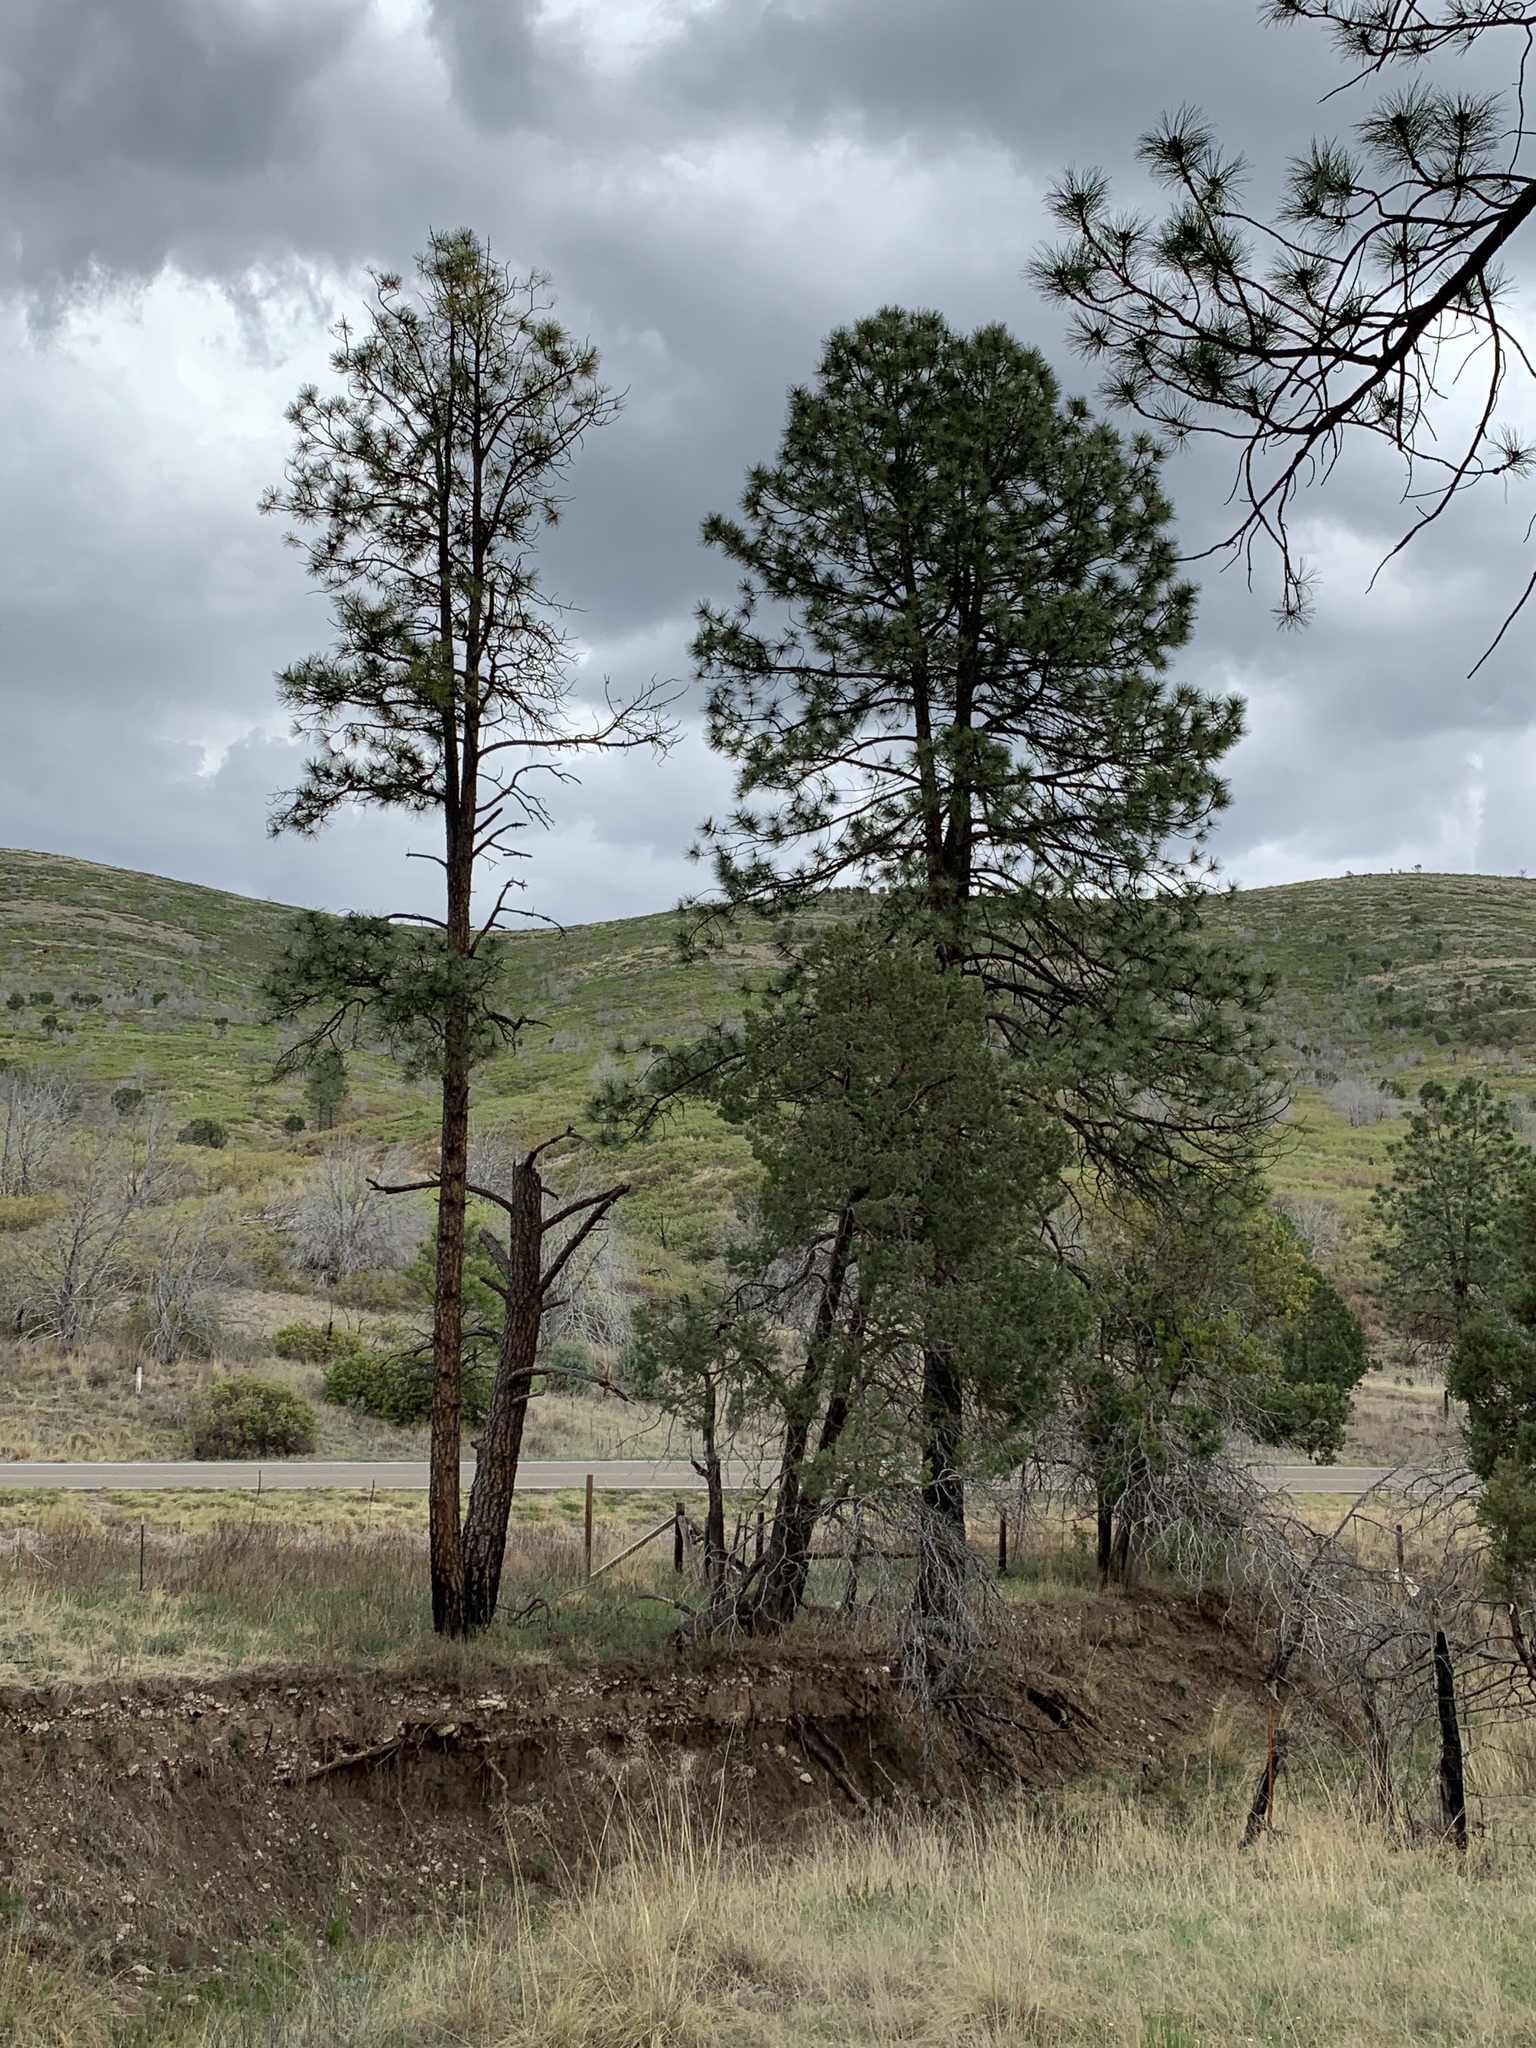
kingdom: Plantae
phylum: Tracheophyta
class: Pinopsida
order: Pinales
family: Pinaceae
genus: Pinus
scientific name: Pinus ponderosa
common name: Western yellow-pine
